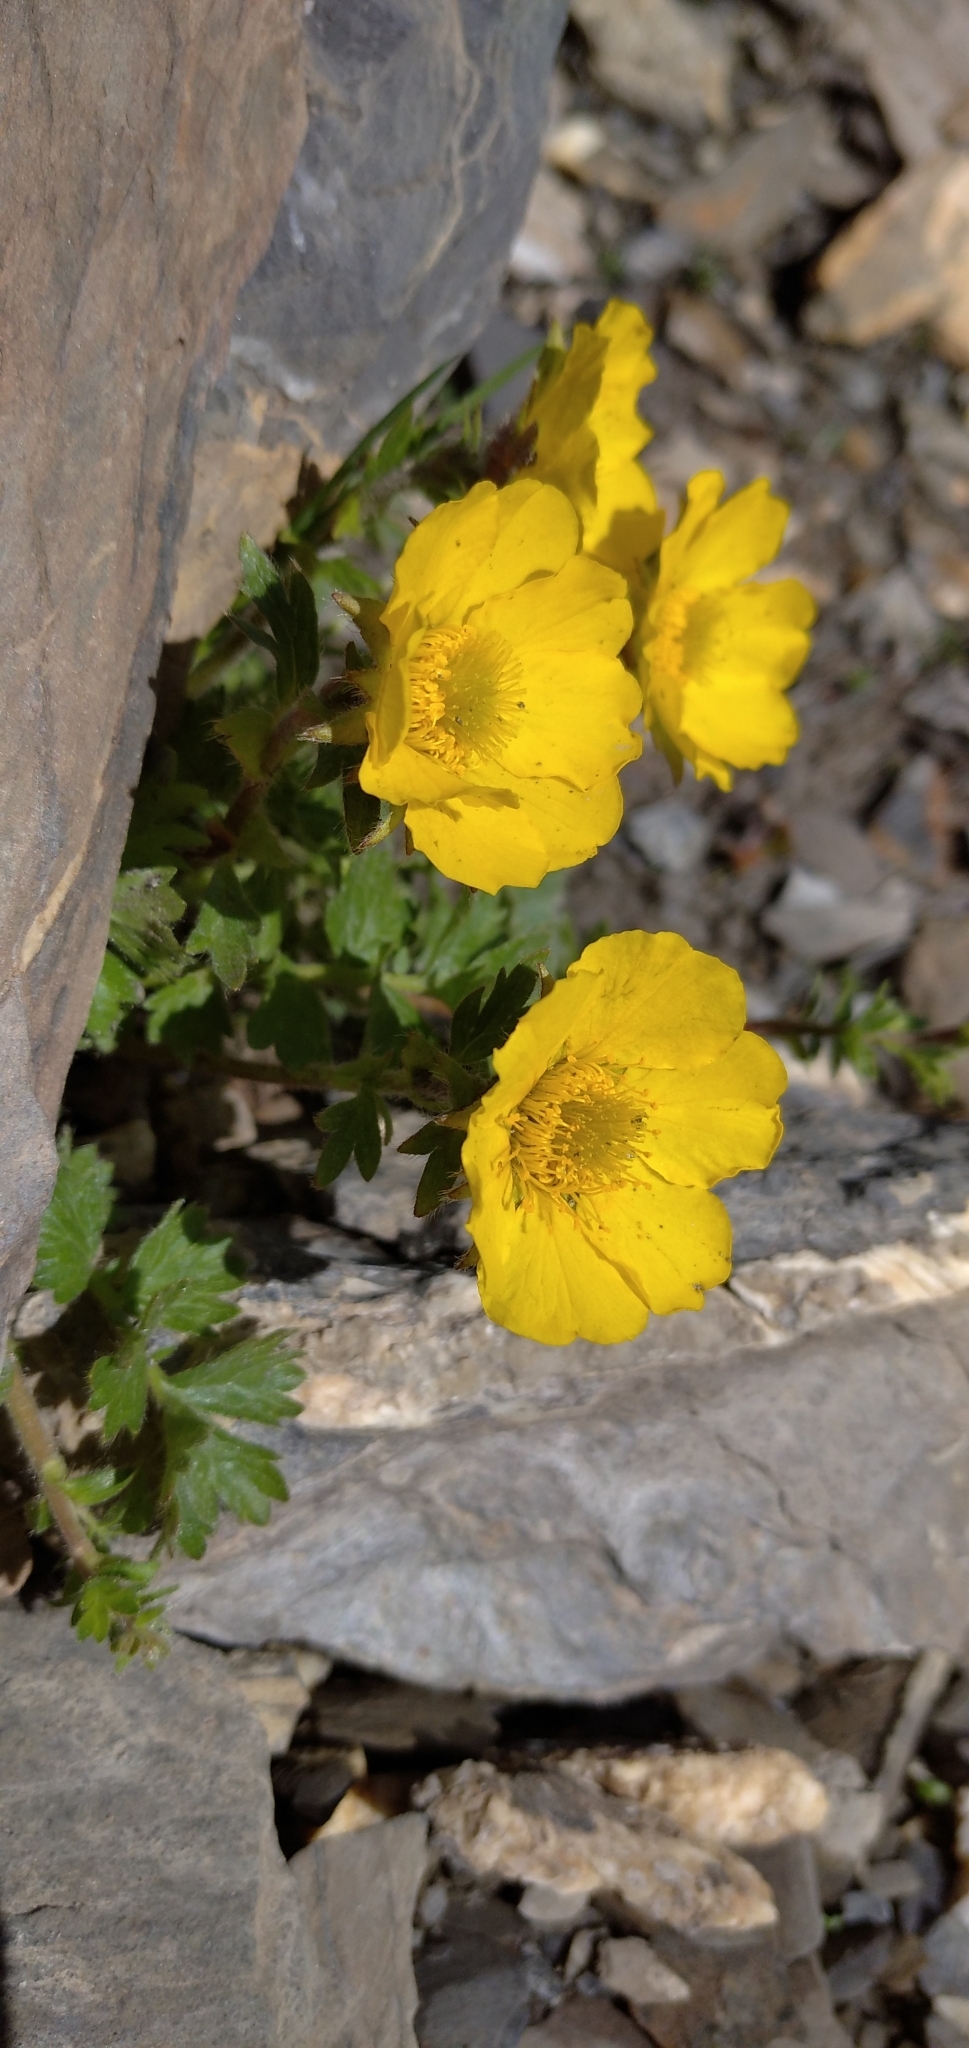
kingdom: Plantae
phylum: Tracheophyta
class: Magnoliopsida
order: Rosales
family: Rosaceae
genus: Geum
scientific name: Geum reptans
